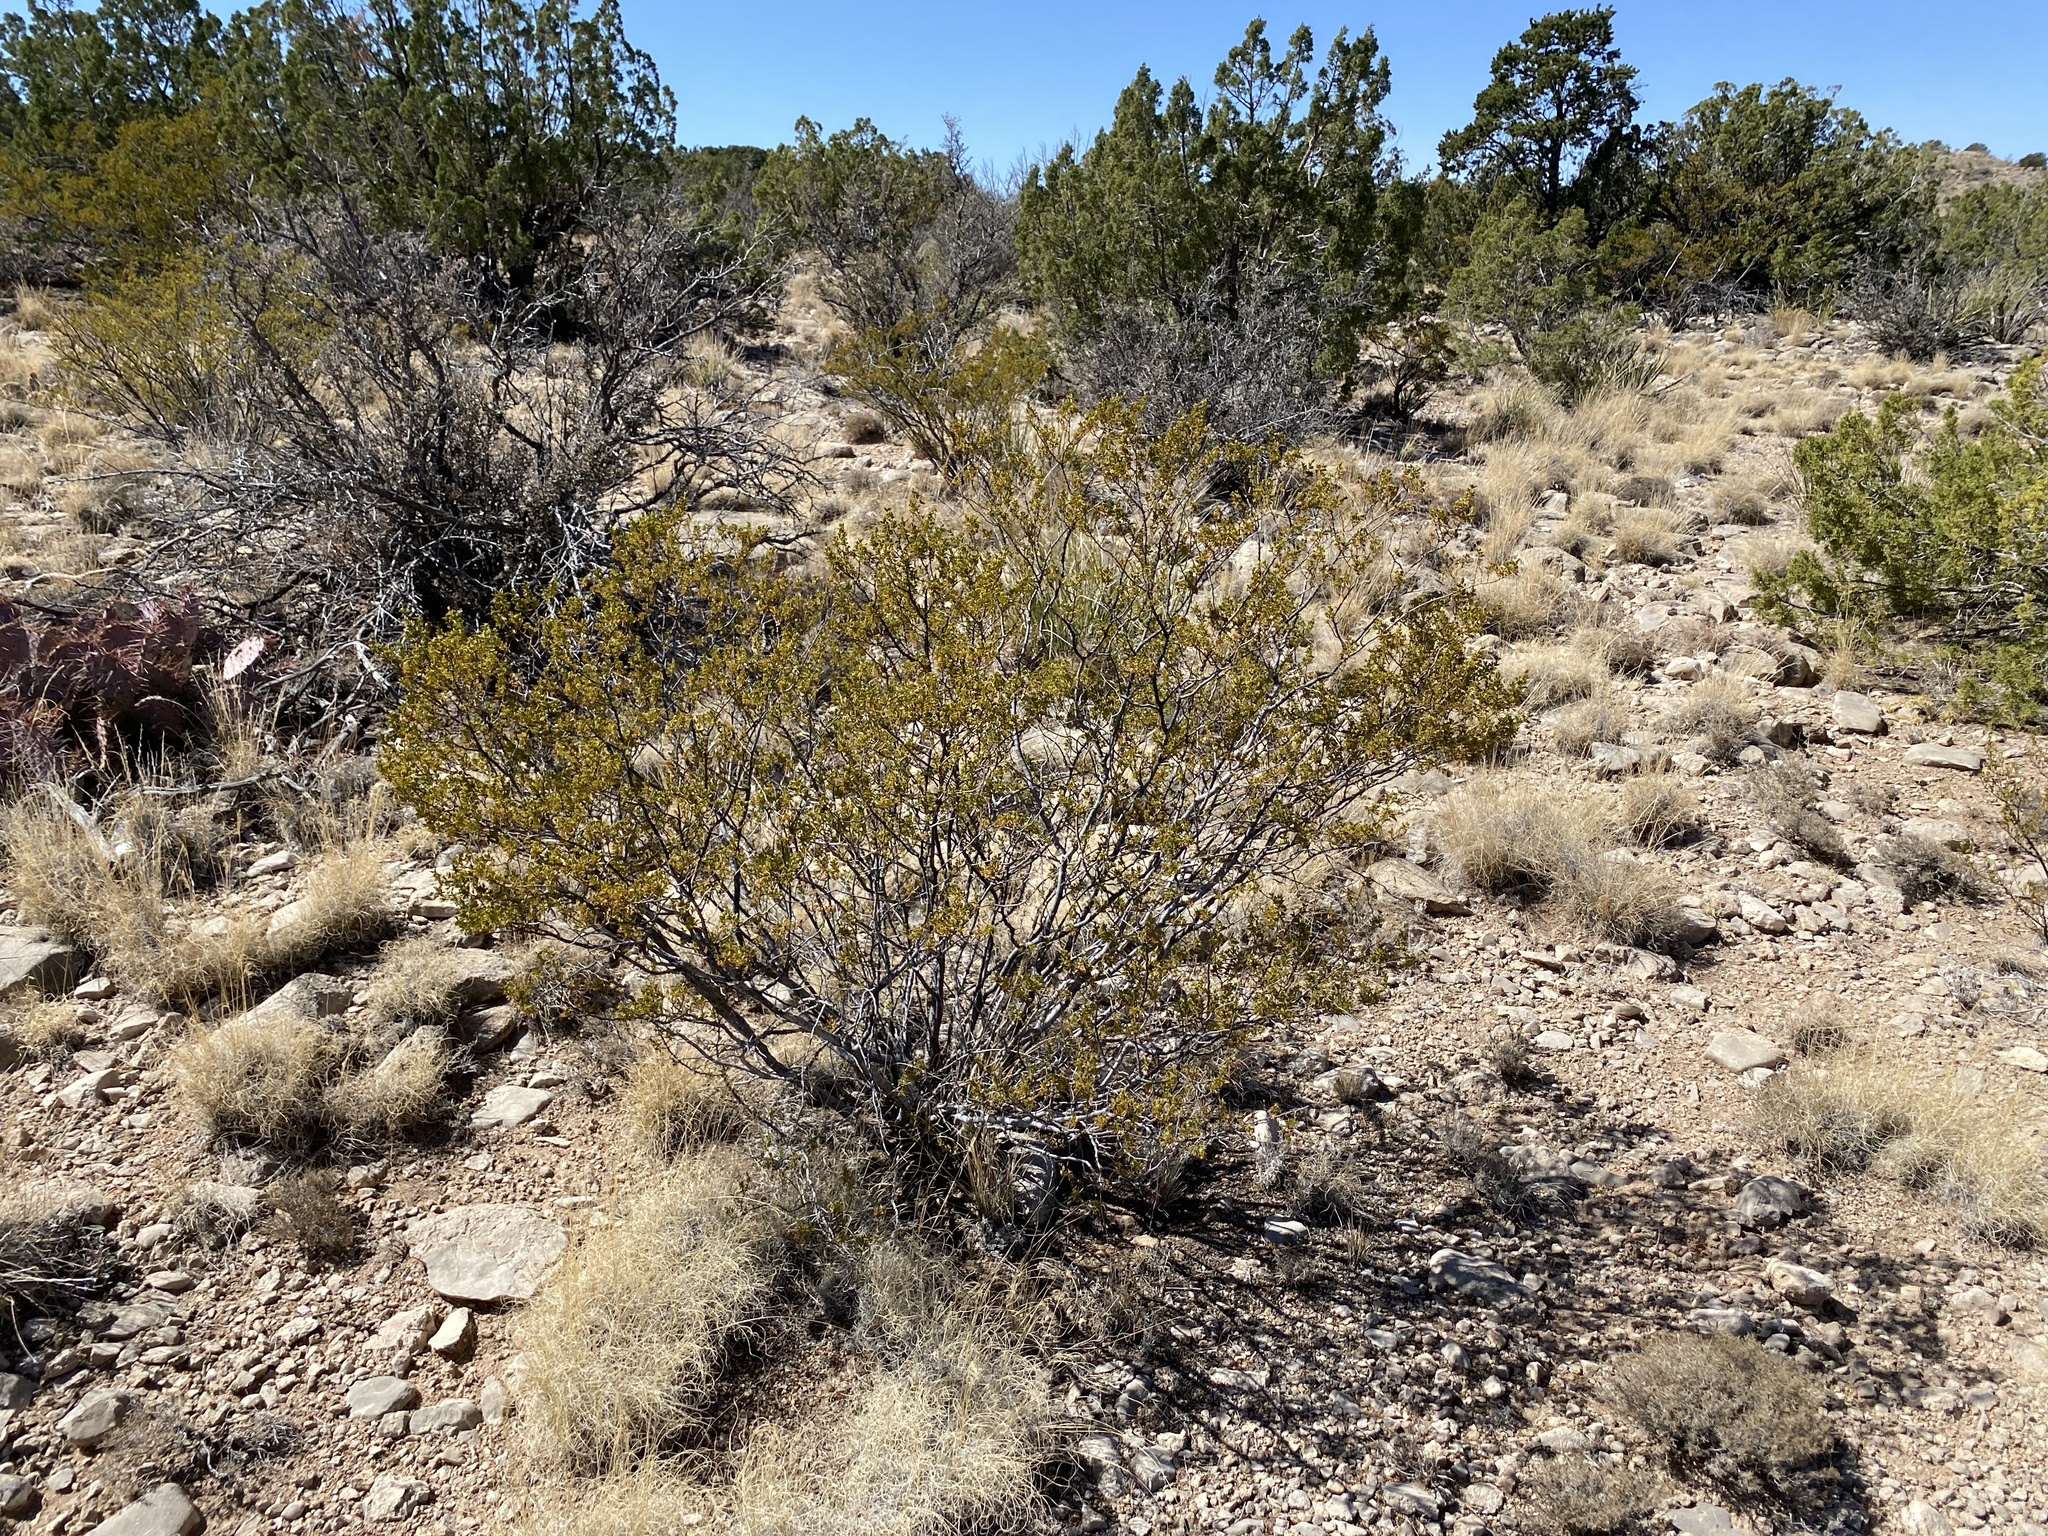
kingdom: Plantae
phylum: Tracheophyta
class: Magnoliopsida
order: Zygophyllales
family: Zygophyllaceae
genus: Larrea
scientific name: Larrea tridentata
